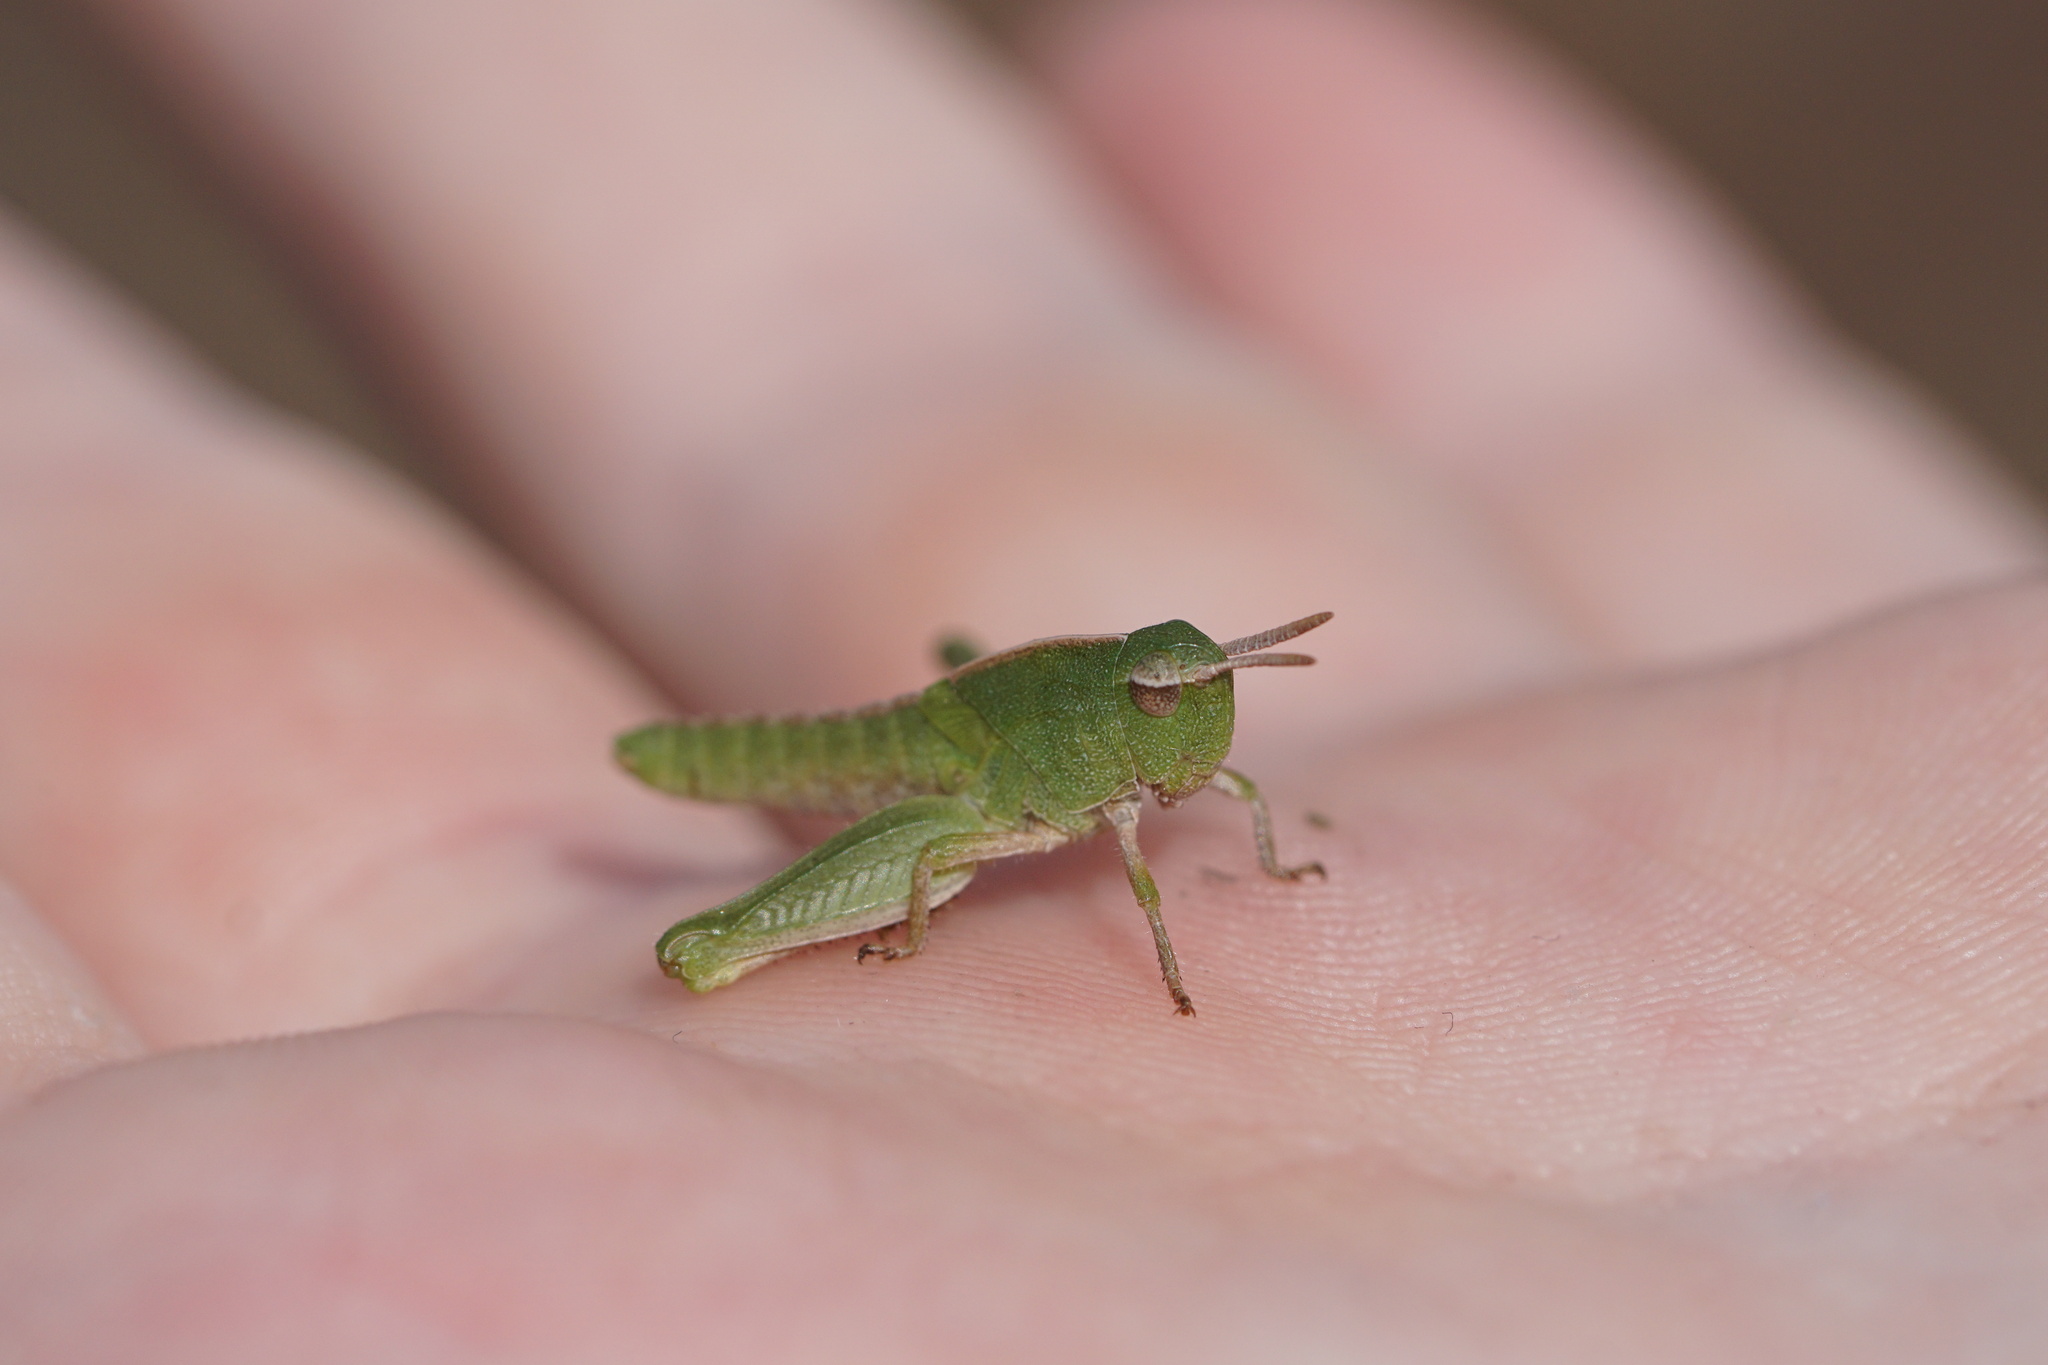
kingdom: Animalia
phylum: Arthropoda
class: Insecta
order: Orthoptera
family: Acrididae
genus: Chortophaga
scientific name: Chortophaga viridifasciata
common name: Green-striped grasshopper
